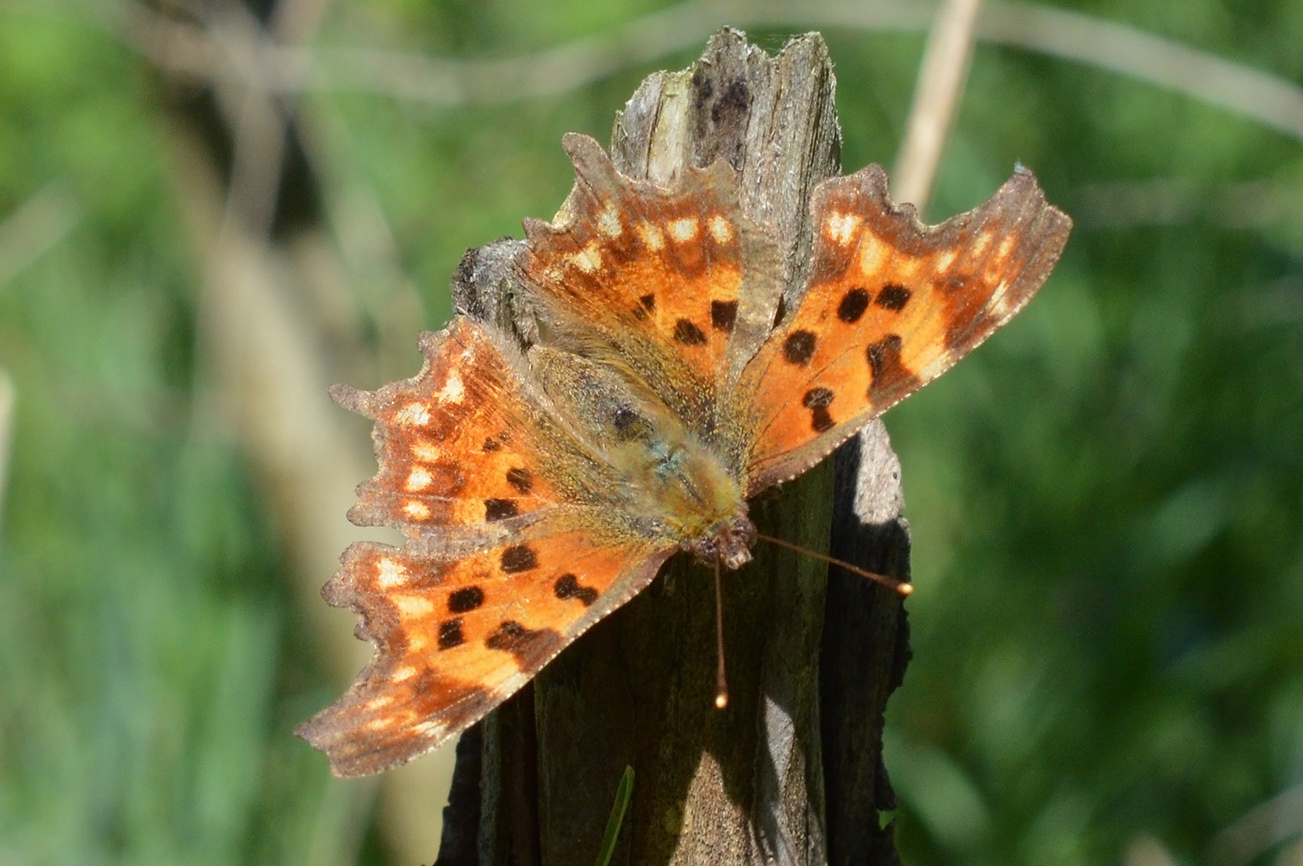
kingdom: Animalia
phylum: Arthropoda
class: Insecta
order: Lepidoptera
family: Nymphalidae
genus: Polygonia
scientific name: Polygonia c-album
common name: Comma
